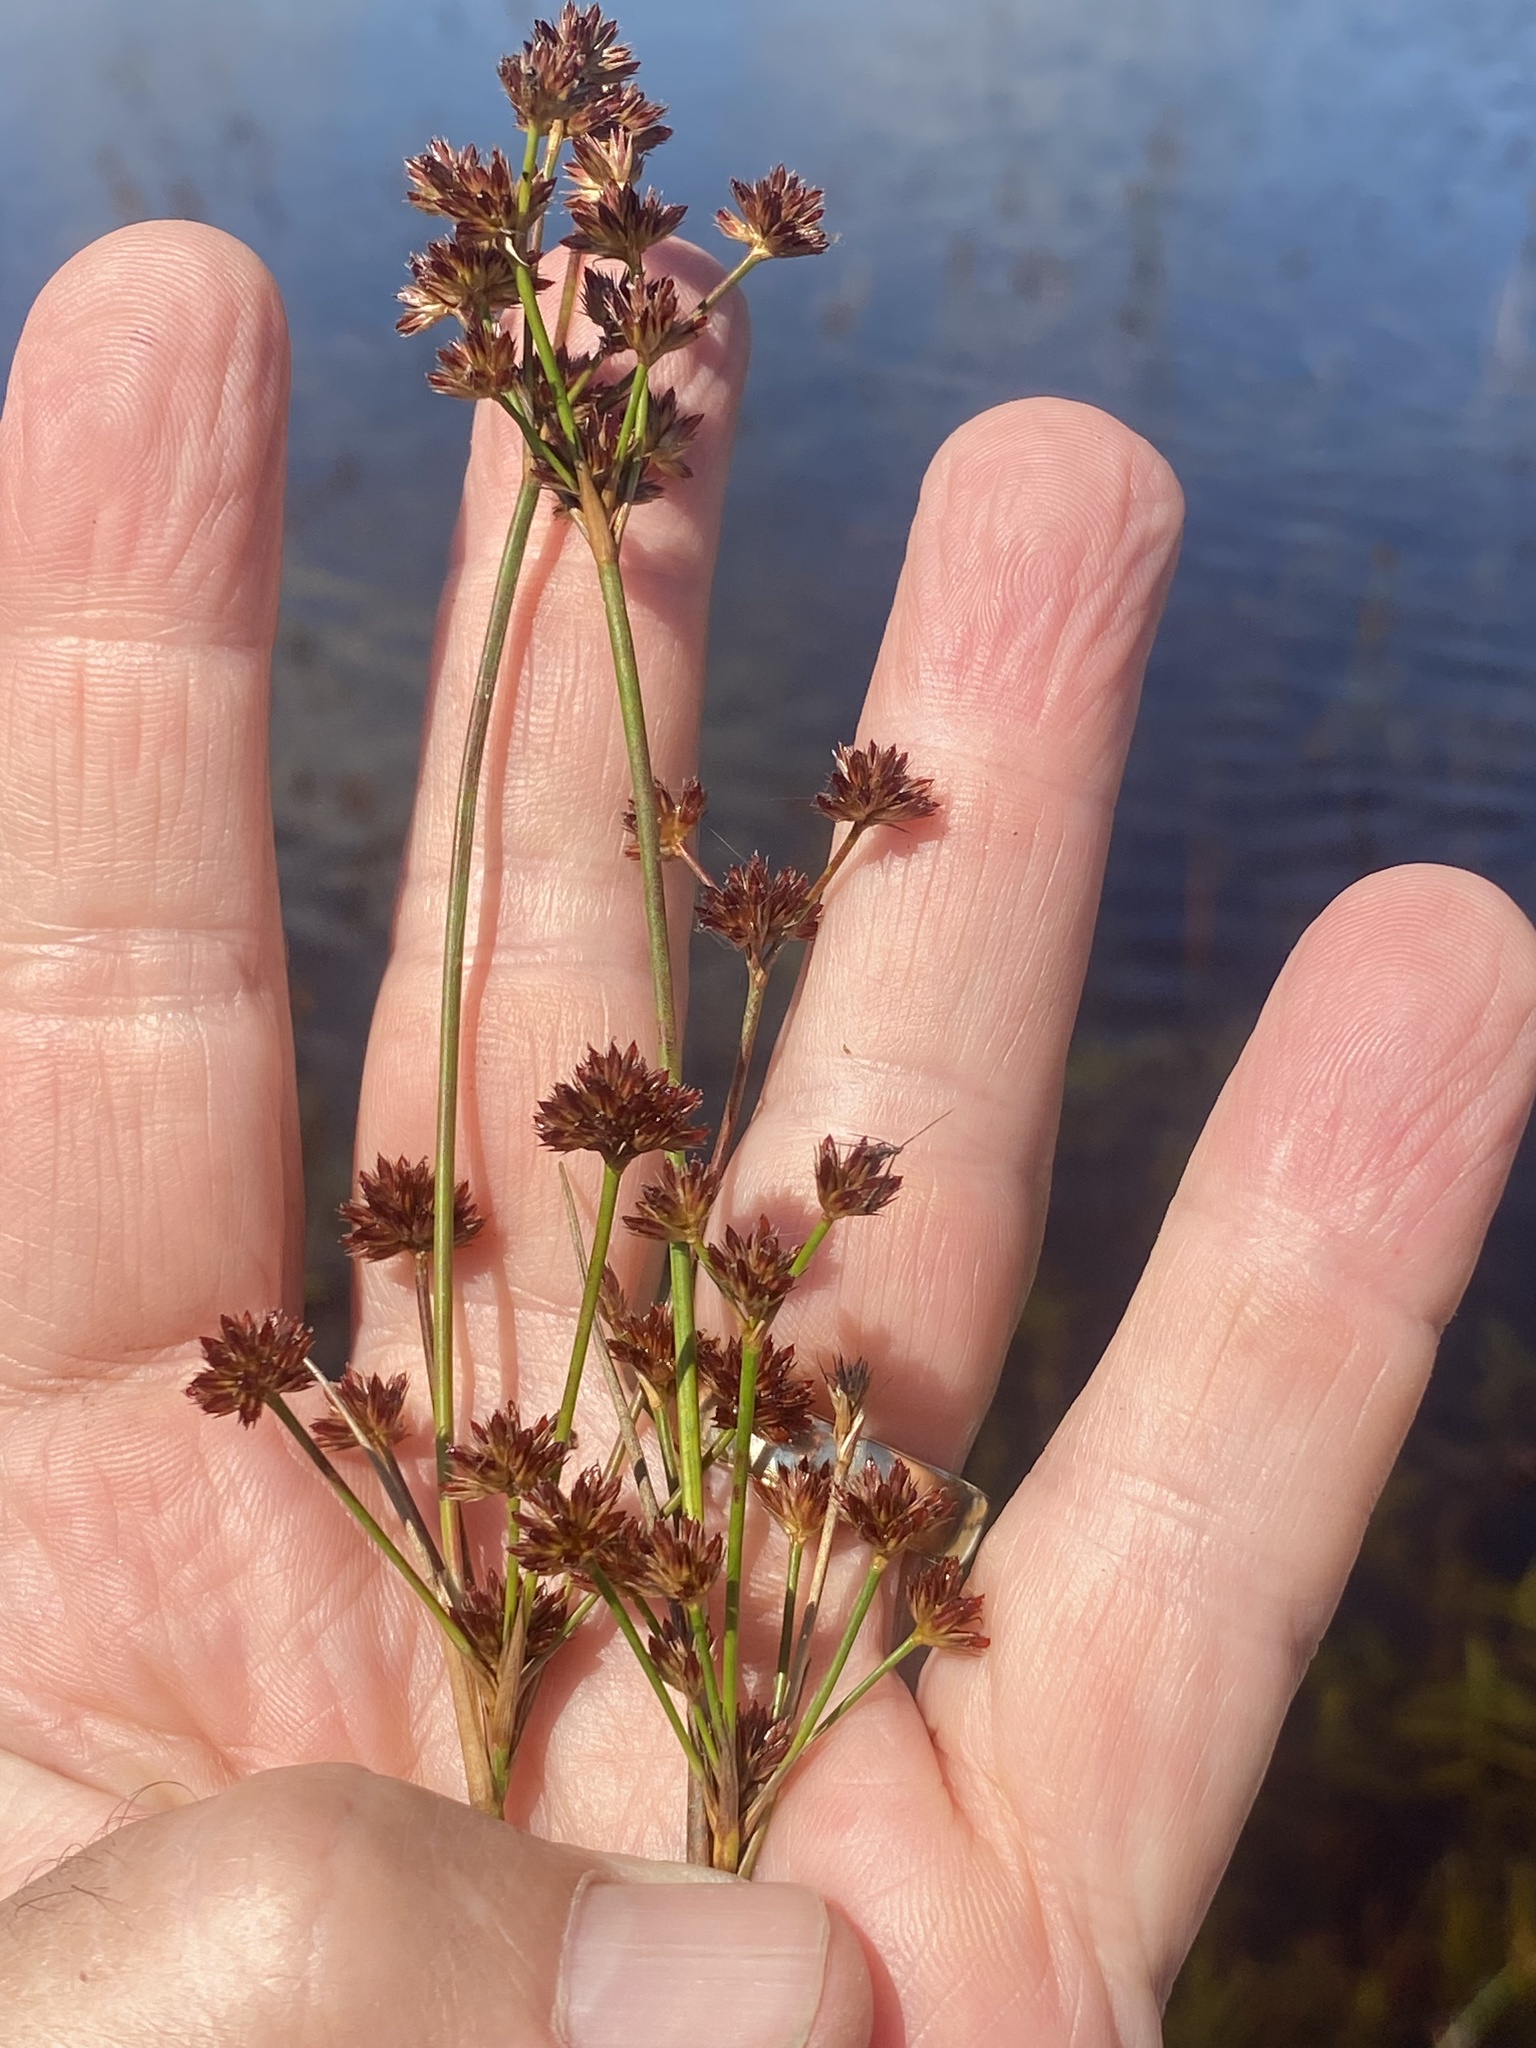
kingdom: Plantae
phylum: Tracheophyta
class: Liliopsida
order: Poales
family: Juncaceae
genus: Juncus
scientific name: Juncus militaris
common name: Bayonet rush
